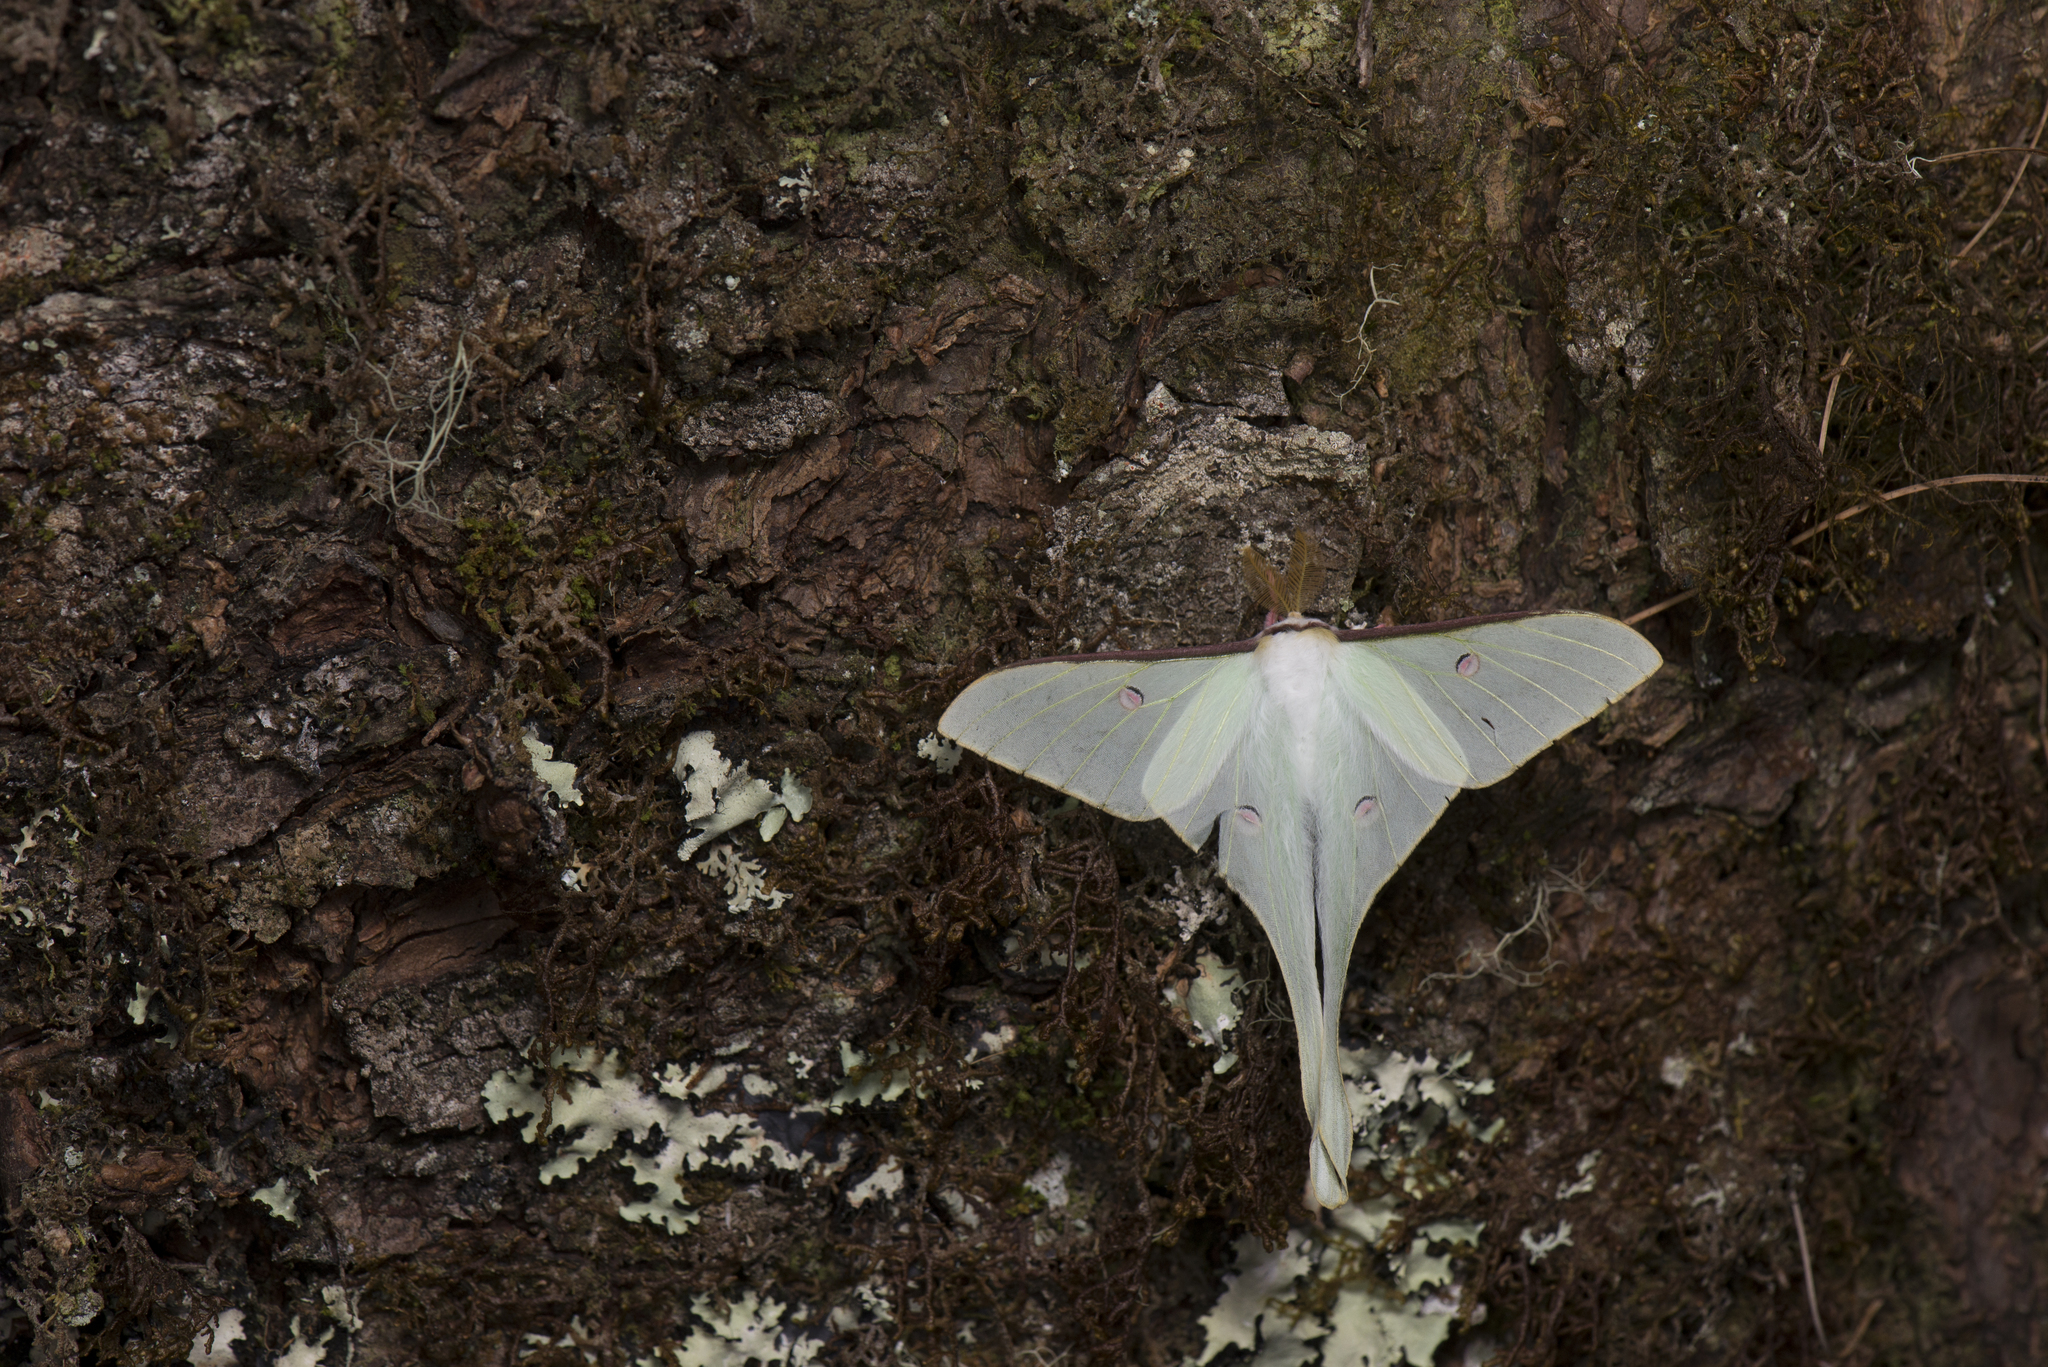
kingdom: Animalia
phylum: Arthropoda
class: Insecta
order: Lepidoptera
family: Saturniidae
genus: Actias
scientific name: Actias neidhoeferi
